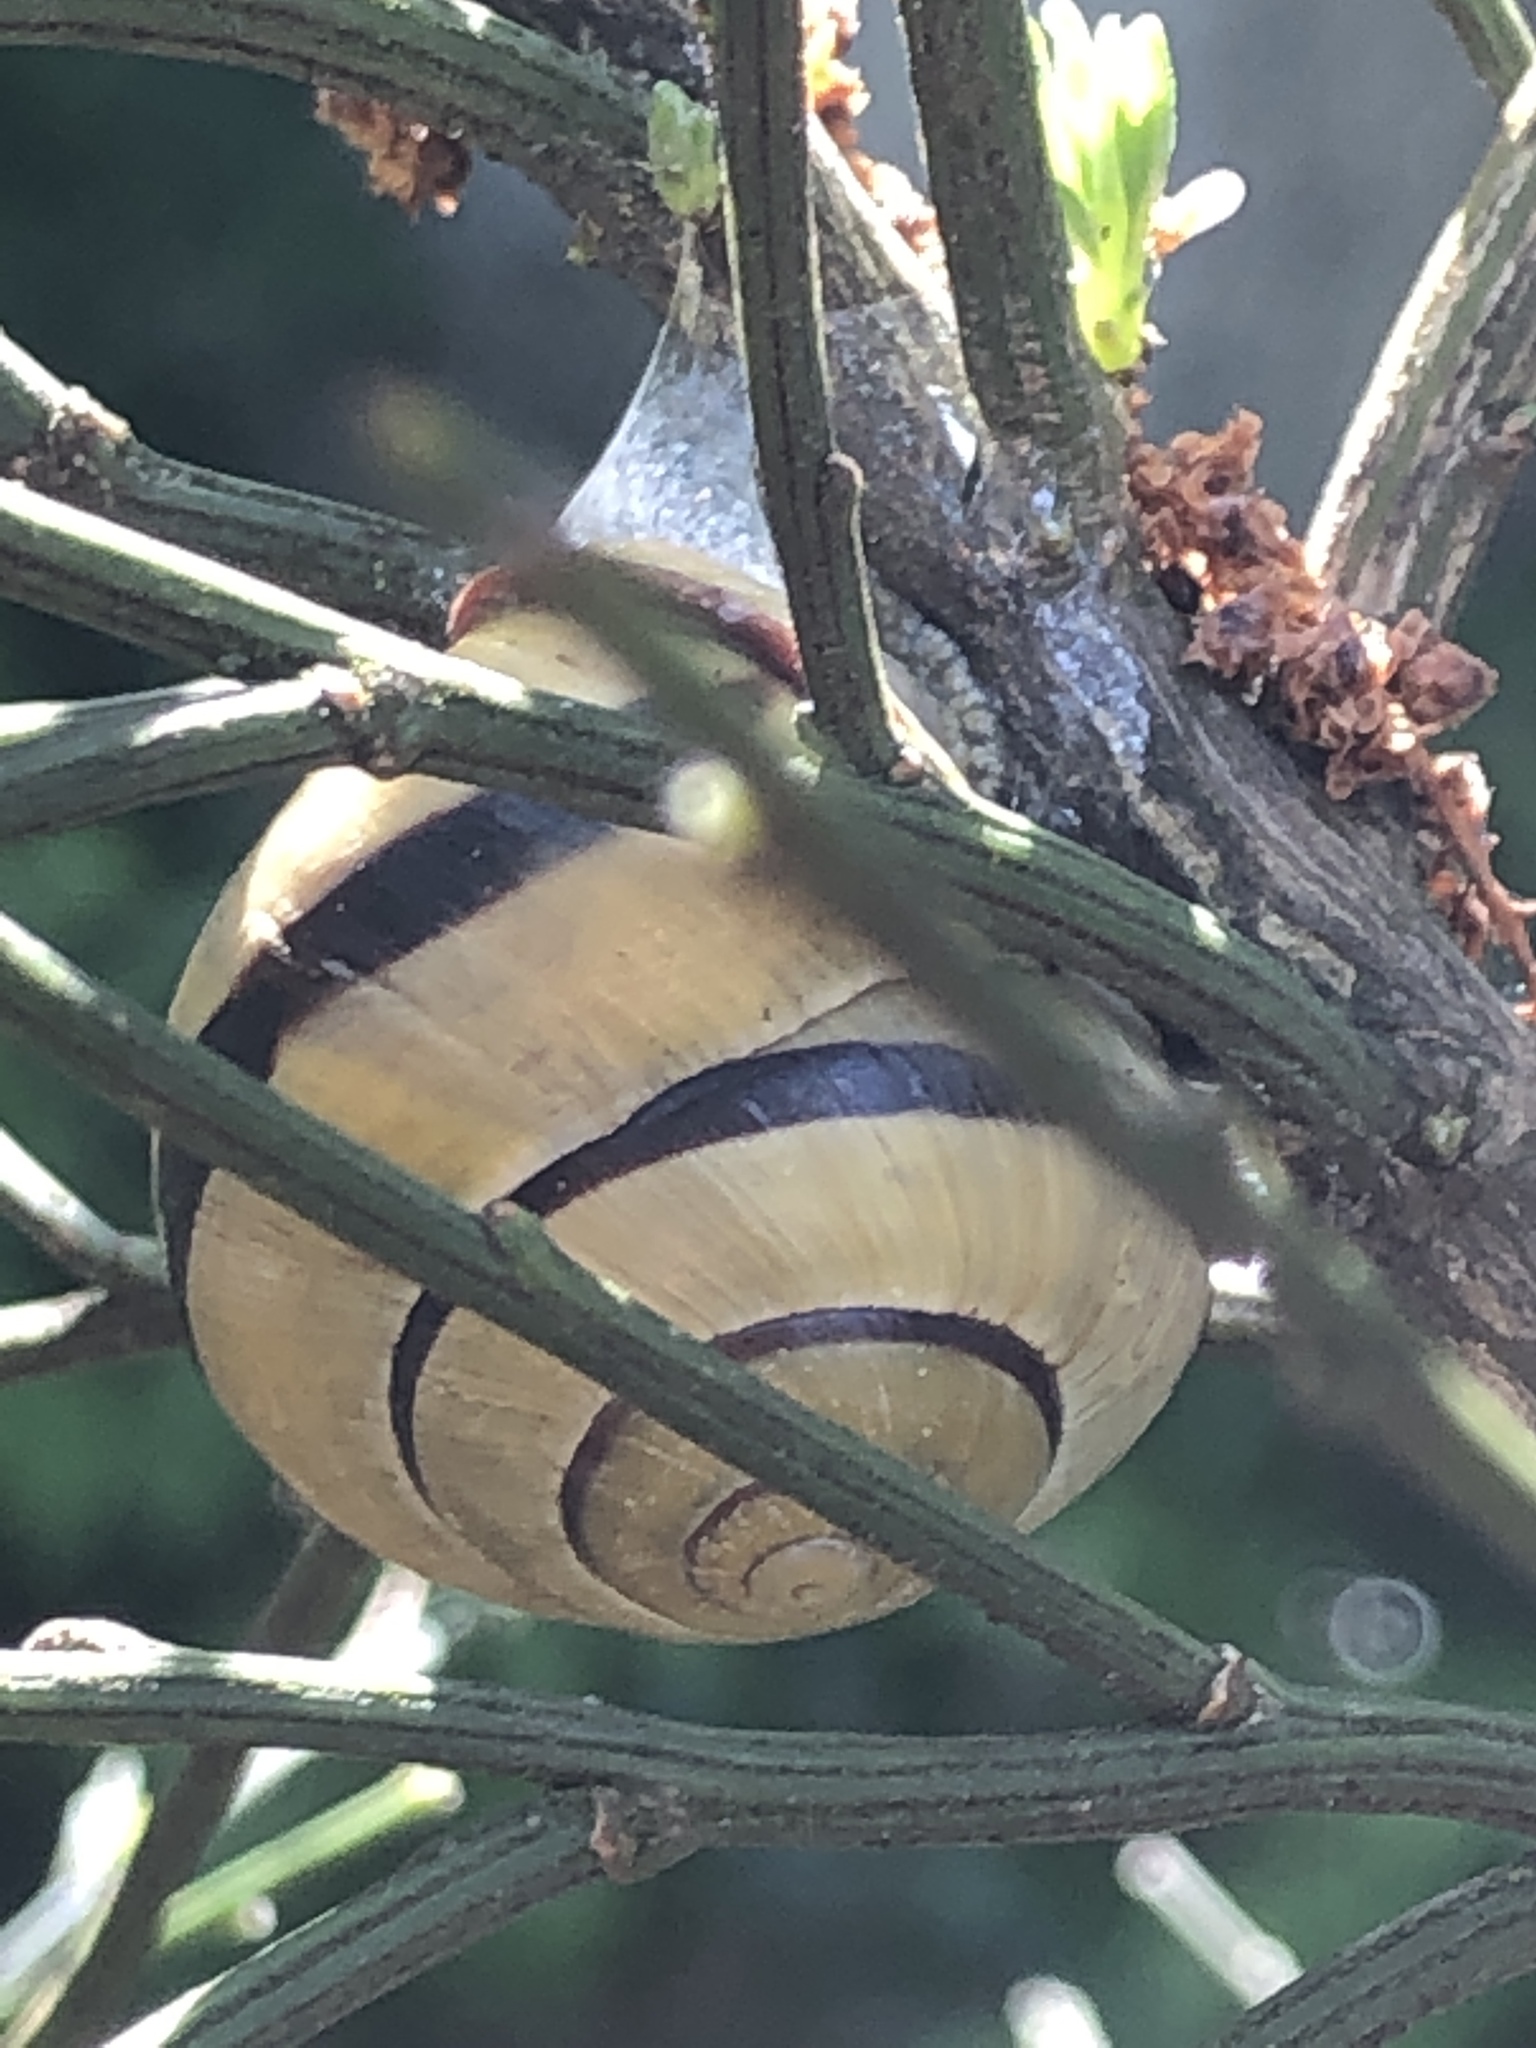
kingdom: Animalia
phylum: Mollusca
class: Gastropoda
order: Stylommatophora
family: Helicidae
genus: Cepaea
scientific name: Cepaea nemoralis
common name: Grovesnail
